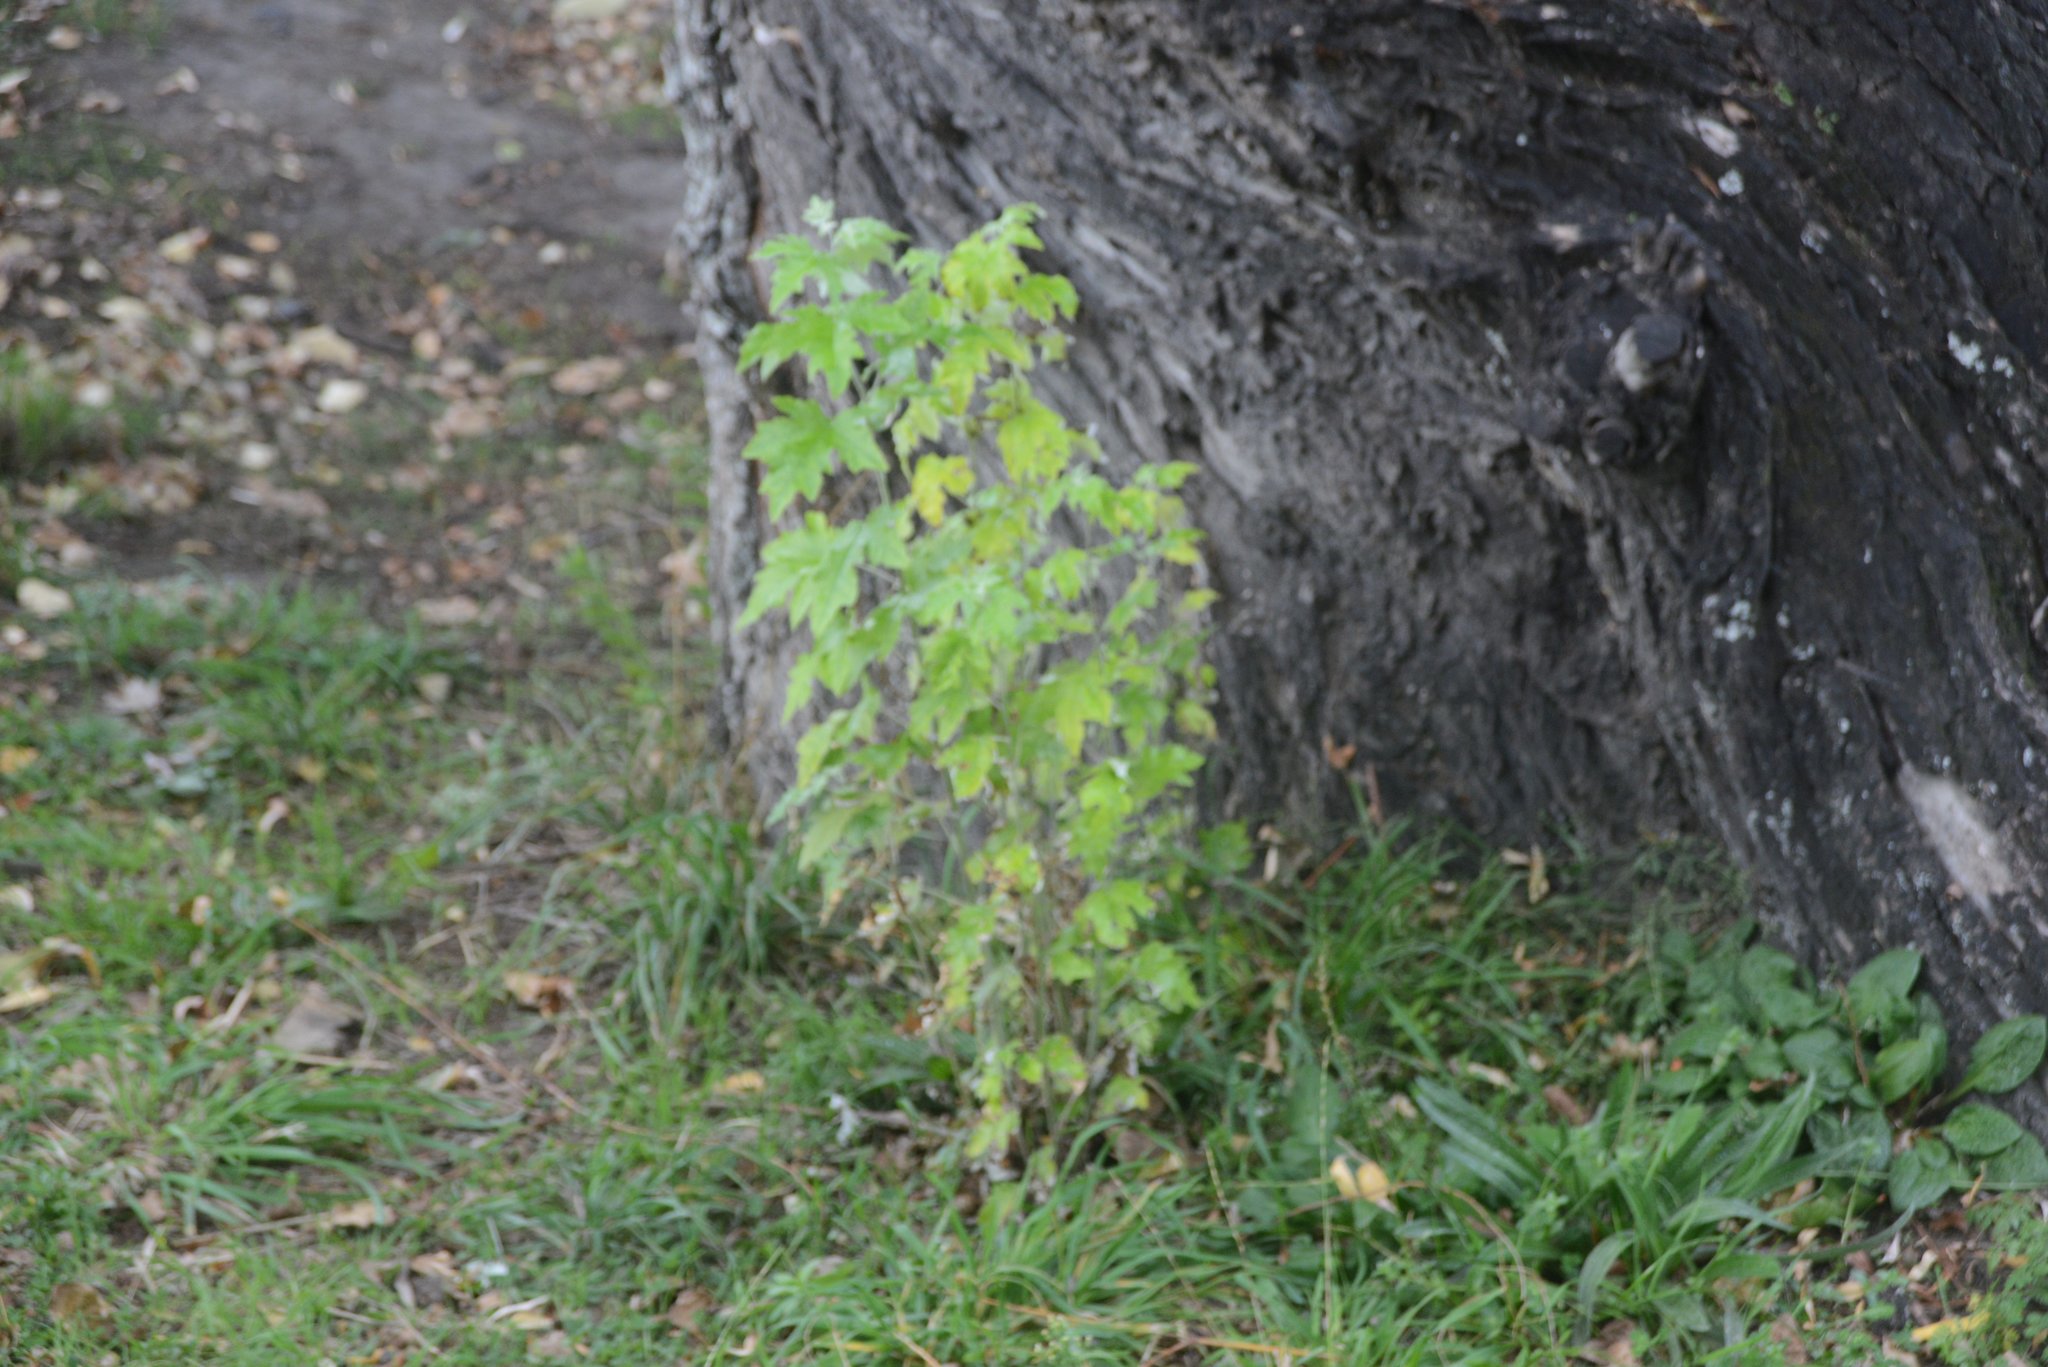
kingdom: Plantae
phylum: Tracheophyta
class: Magnoliopsida
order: Malpighiales
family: Salicaceae
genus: Populus
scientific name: Populus alba
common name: White poplar
